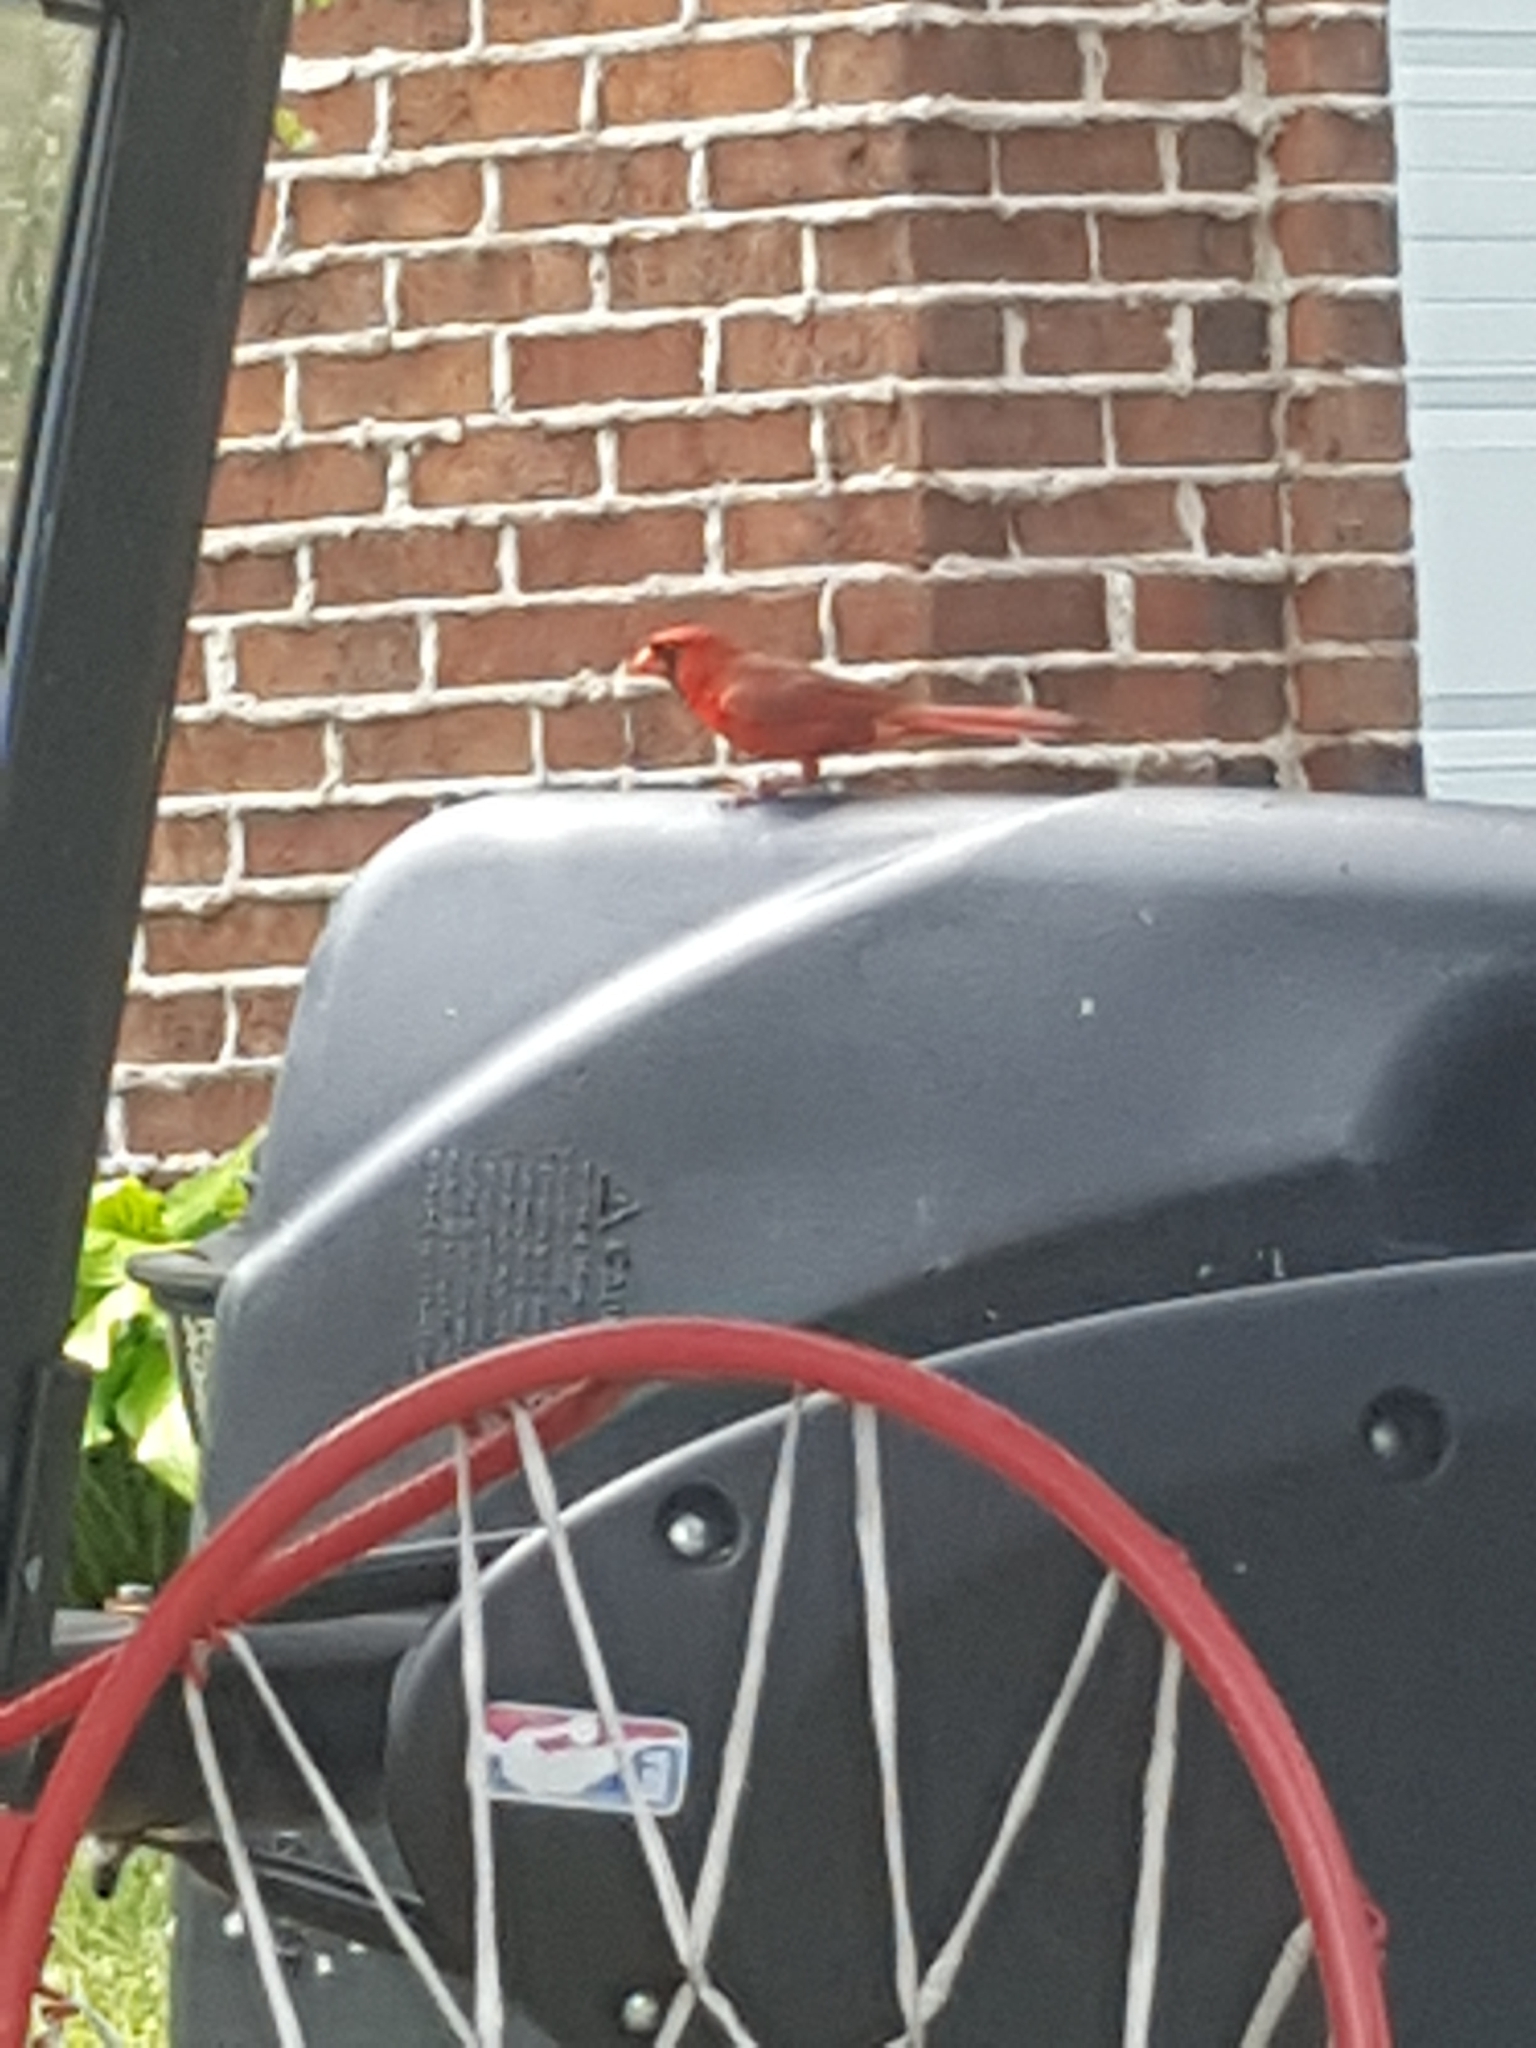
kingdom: Animalia
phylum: Chordata
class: Aves
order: Passeriformes
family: Cardinalidae
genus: Cardinalis
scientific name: Cardinalis cardinalis
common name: Northern cardinal
